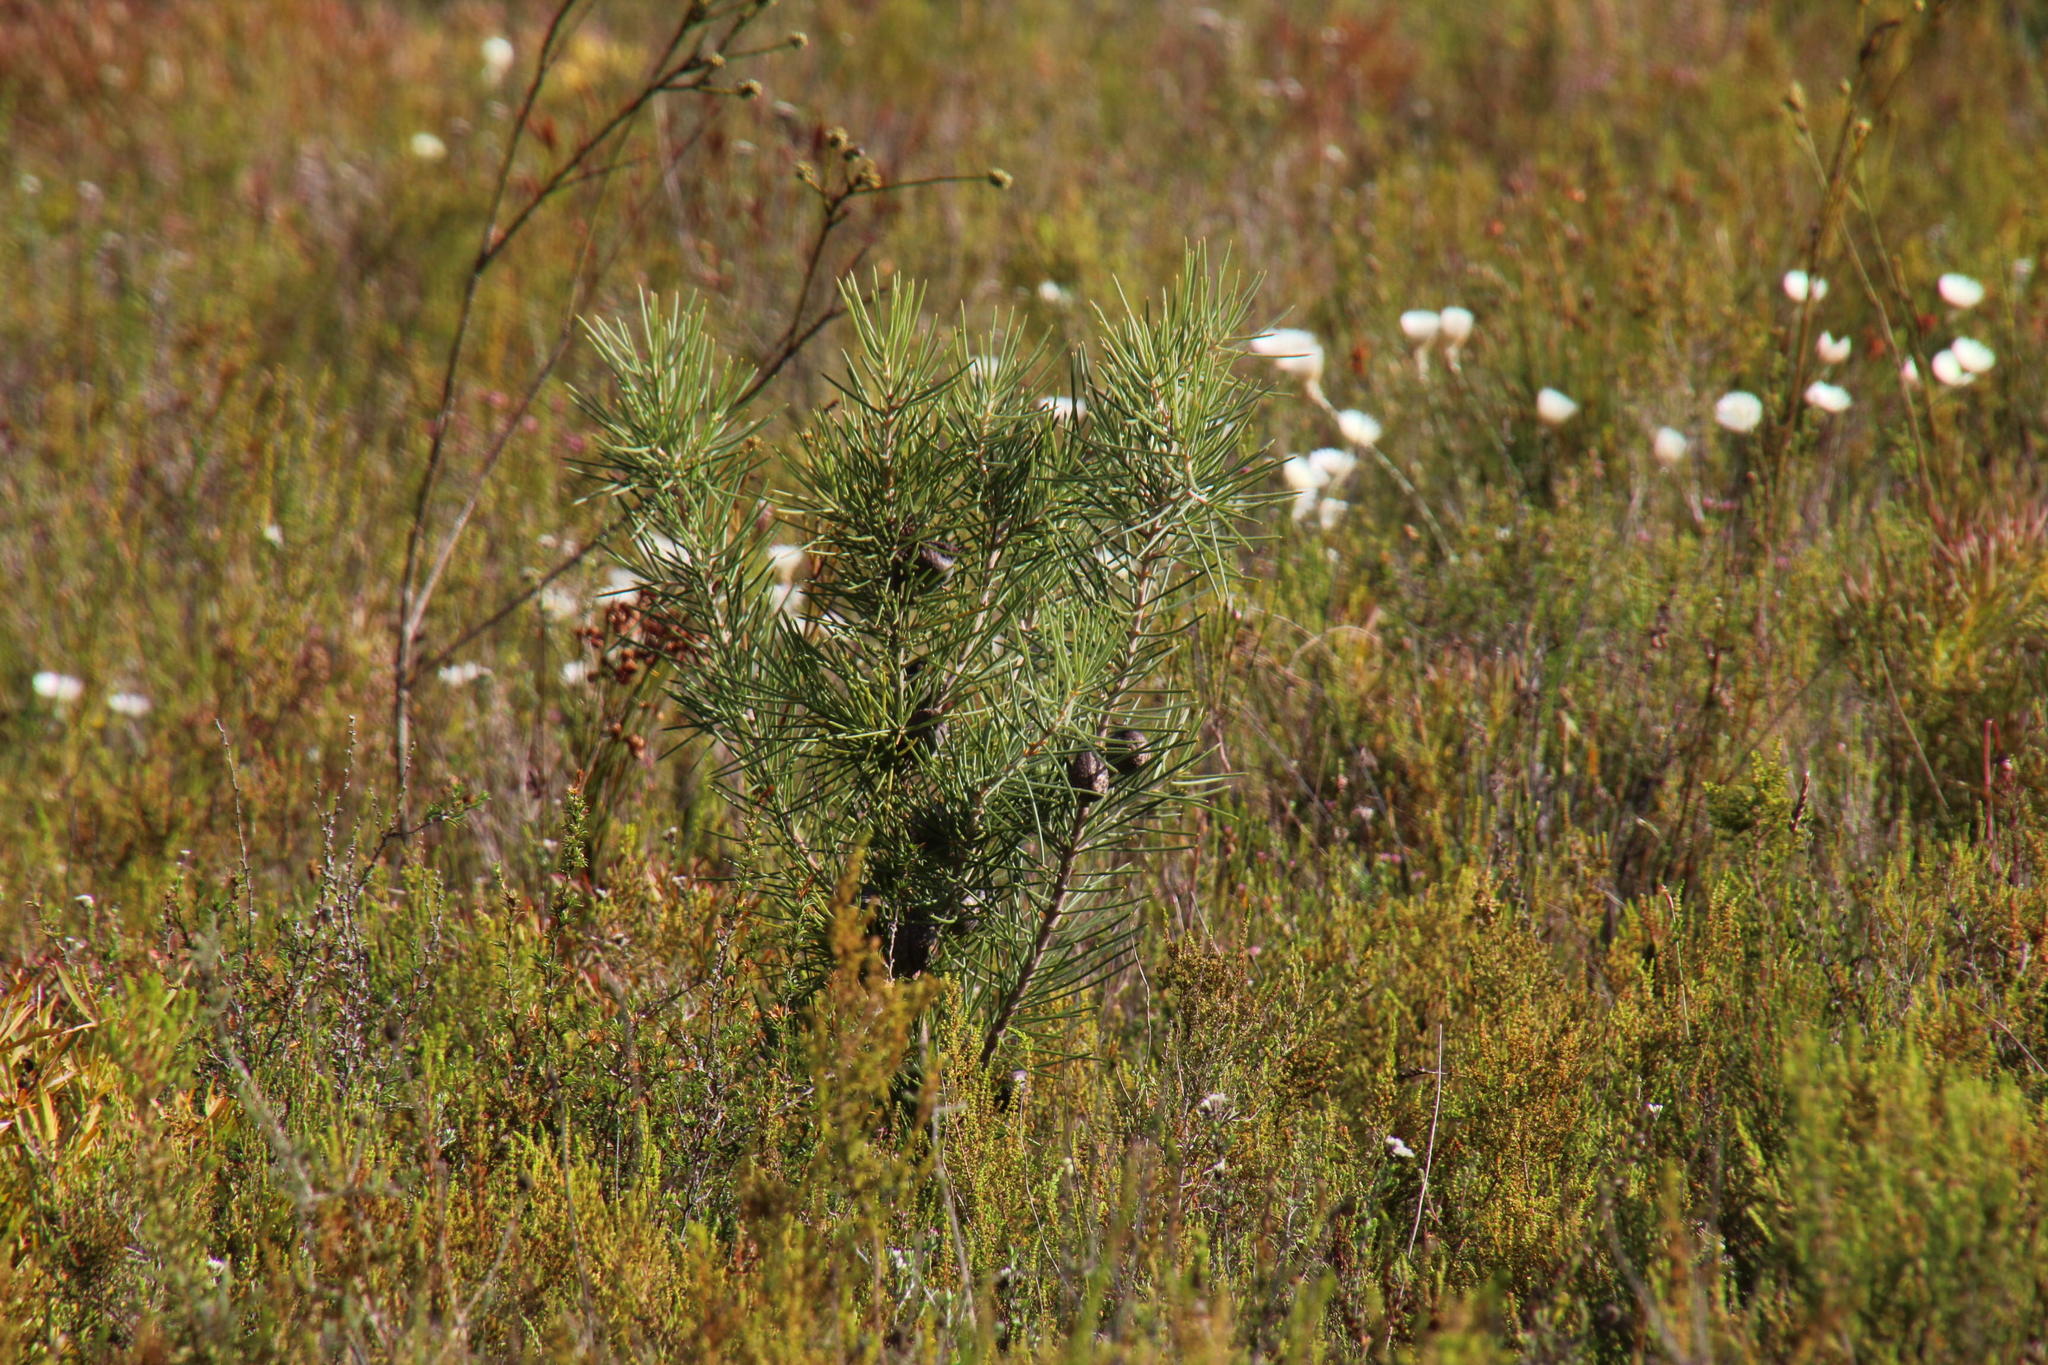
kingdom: Plantae
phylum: Tracheophyta
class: Magnoliopsida
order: Proteales
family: Proteaceae
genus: Hakea
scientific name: Hakea gibbosa
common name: Rock hakea
